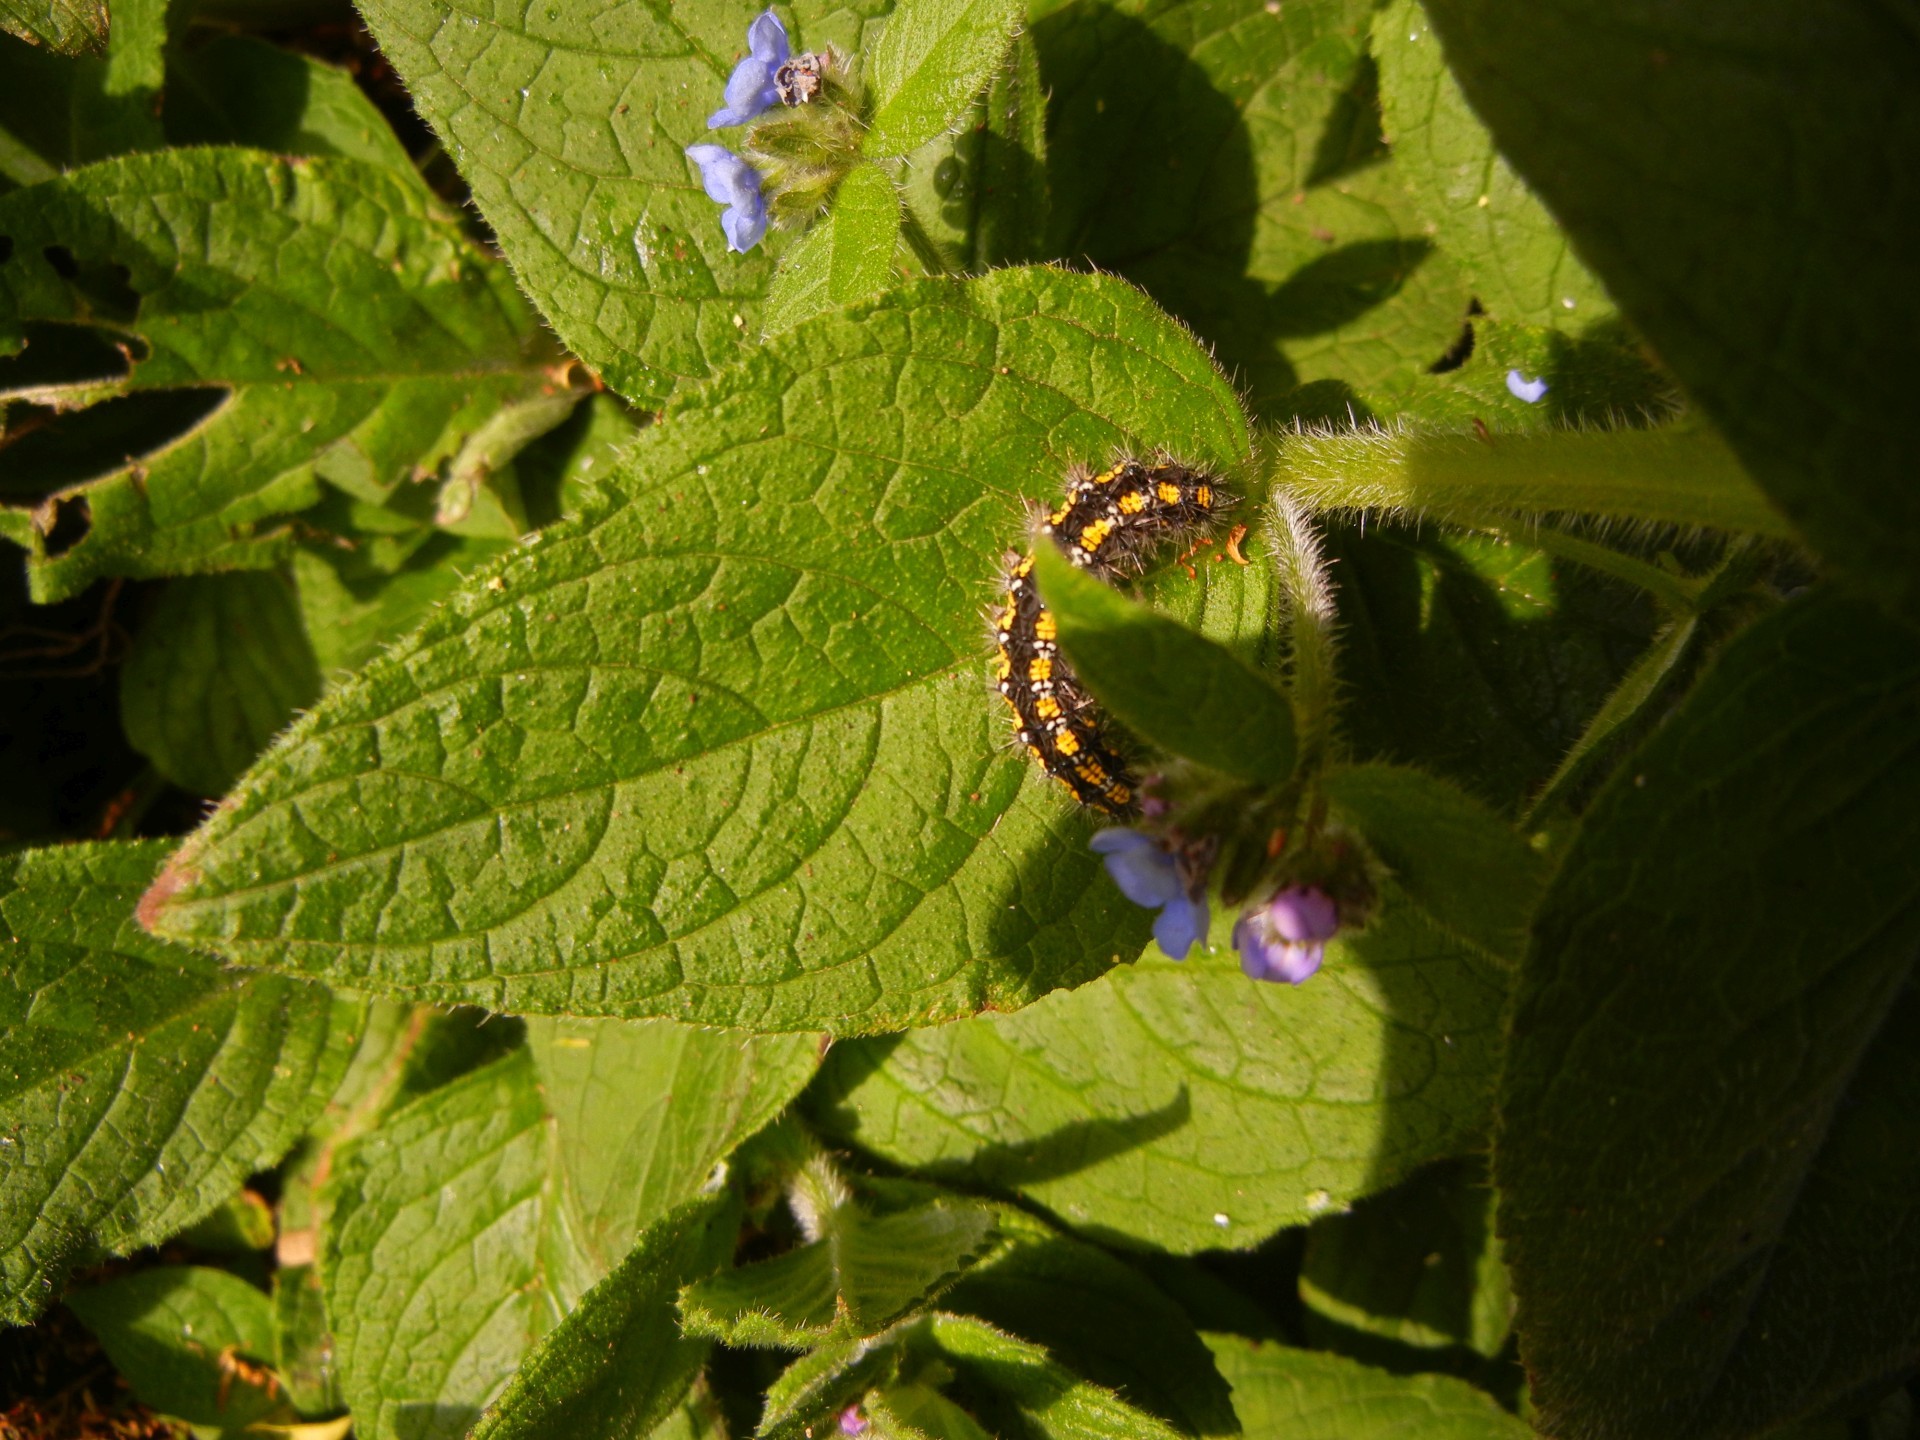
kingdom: Plantae
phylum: Tracheophyta
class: Magnoliopsida
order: Boraginales
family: Boraginaceae
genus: Pentaglottis
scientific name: Pentaglottis sempervirens
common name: Green alkanet
